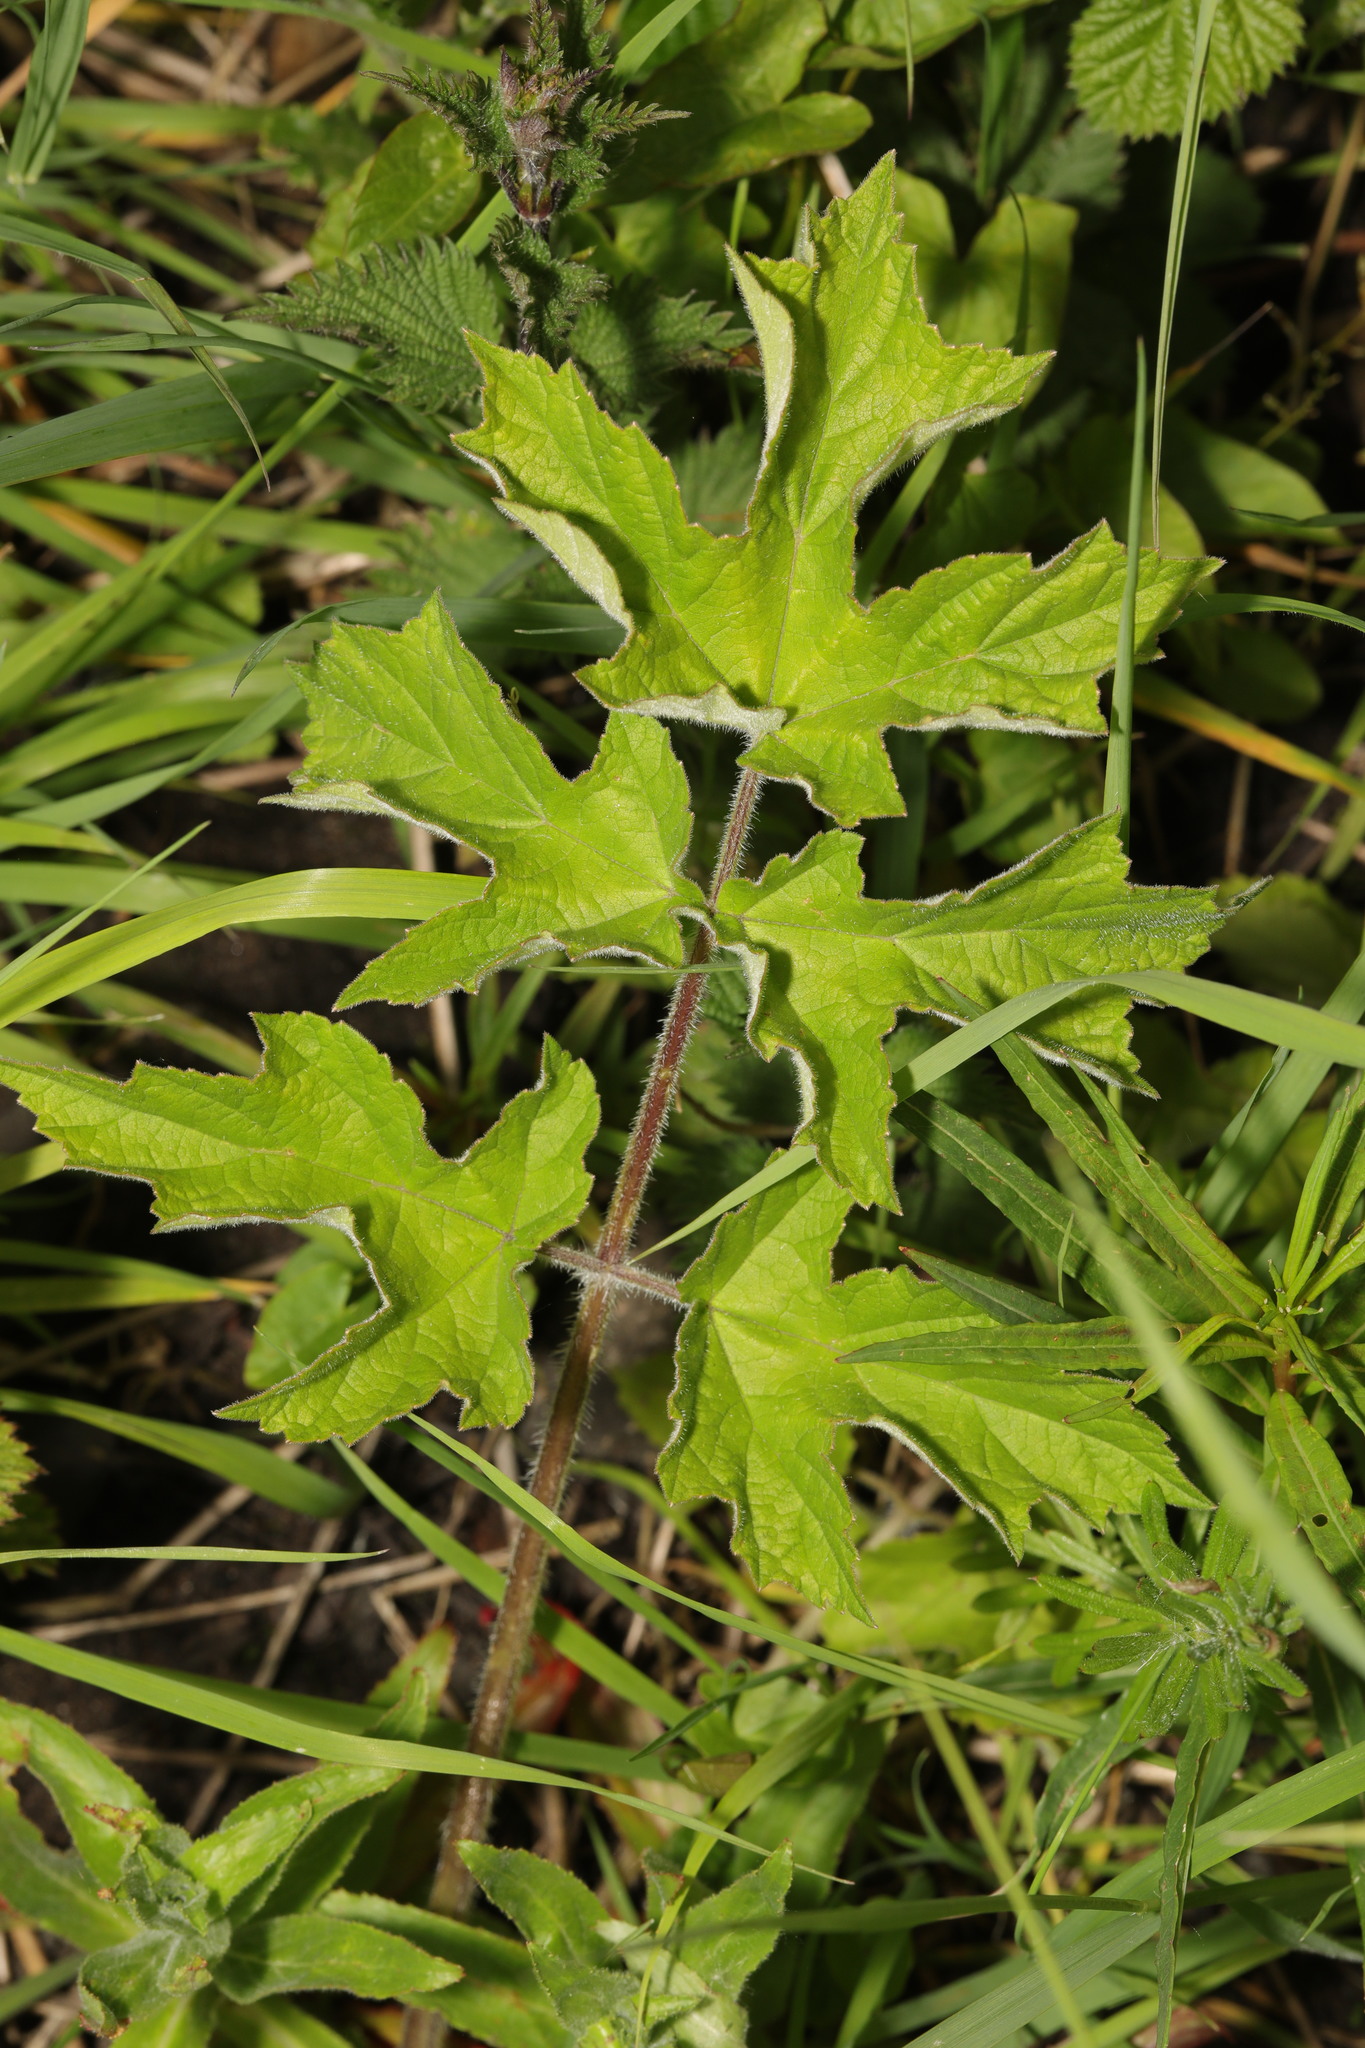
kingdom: Plantae
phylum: Tracheophyta
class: Magnoliopsida
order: Apiales
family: Apiaceae
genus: Heracleum
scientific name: Heracleum sphondylium
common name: Hogweed
